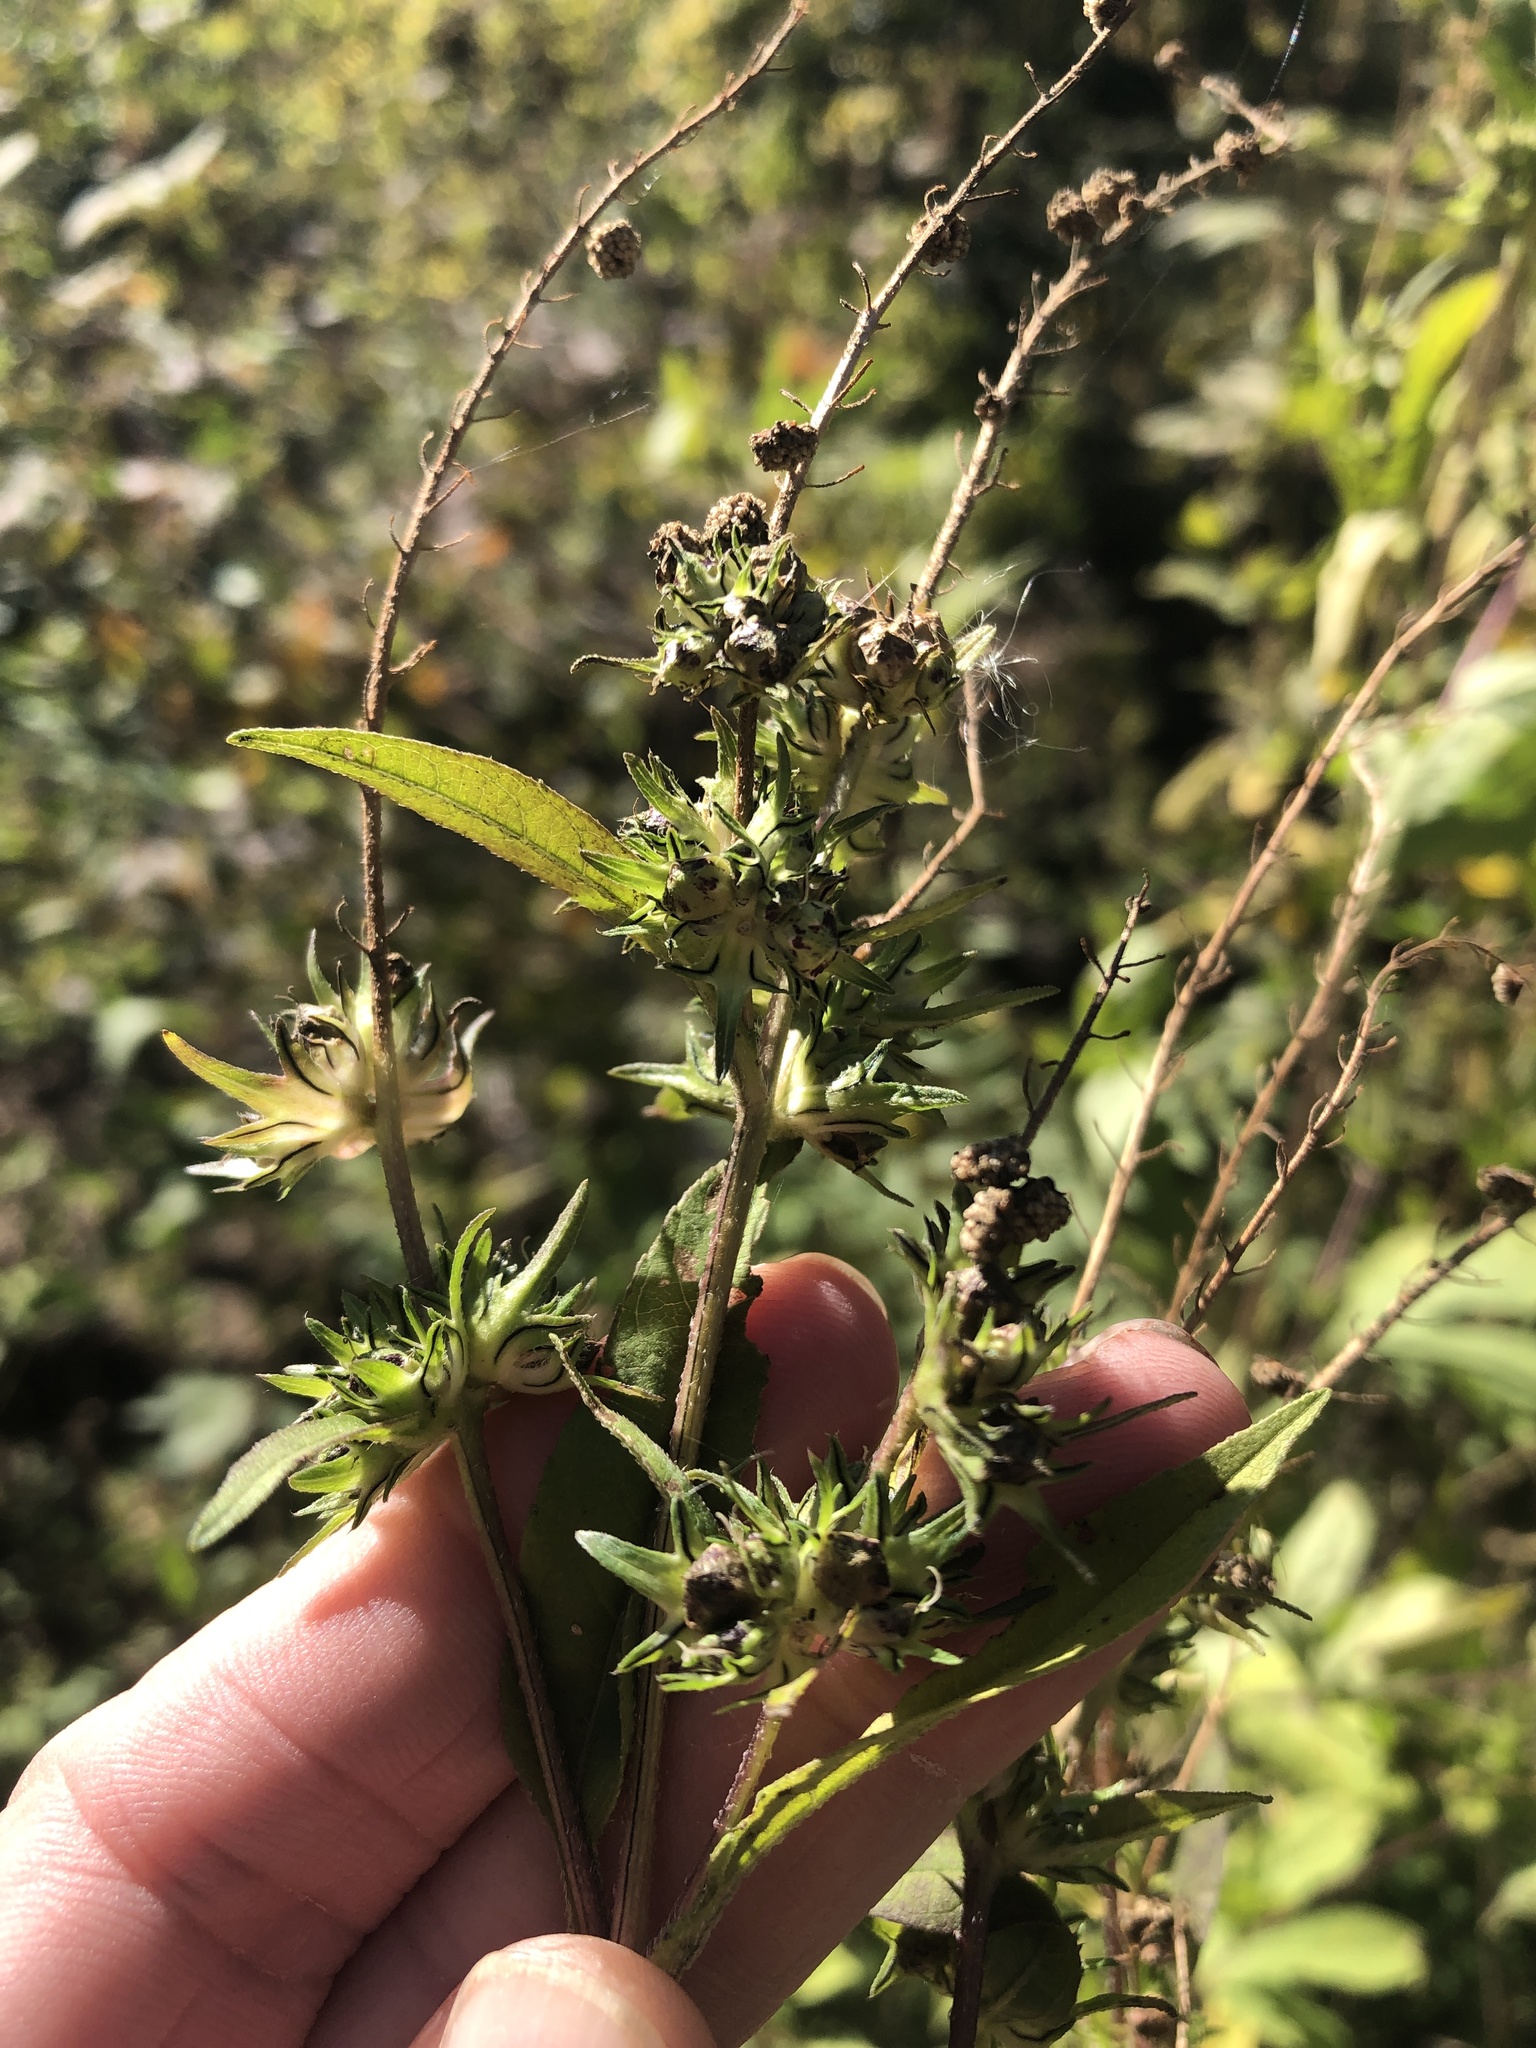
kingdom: Plantae
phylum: Tracheophyta
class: Magnoliopsida
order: Asterales
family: Asteraceae
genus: Ambrosia
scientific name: Ambrosia trifida
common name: Giant ragweed
